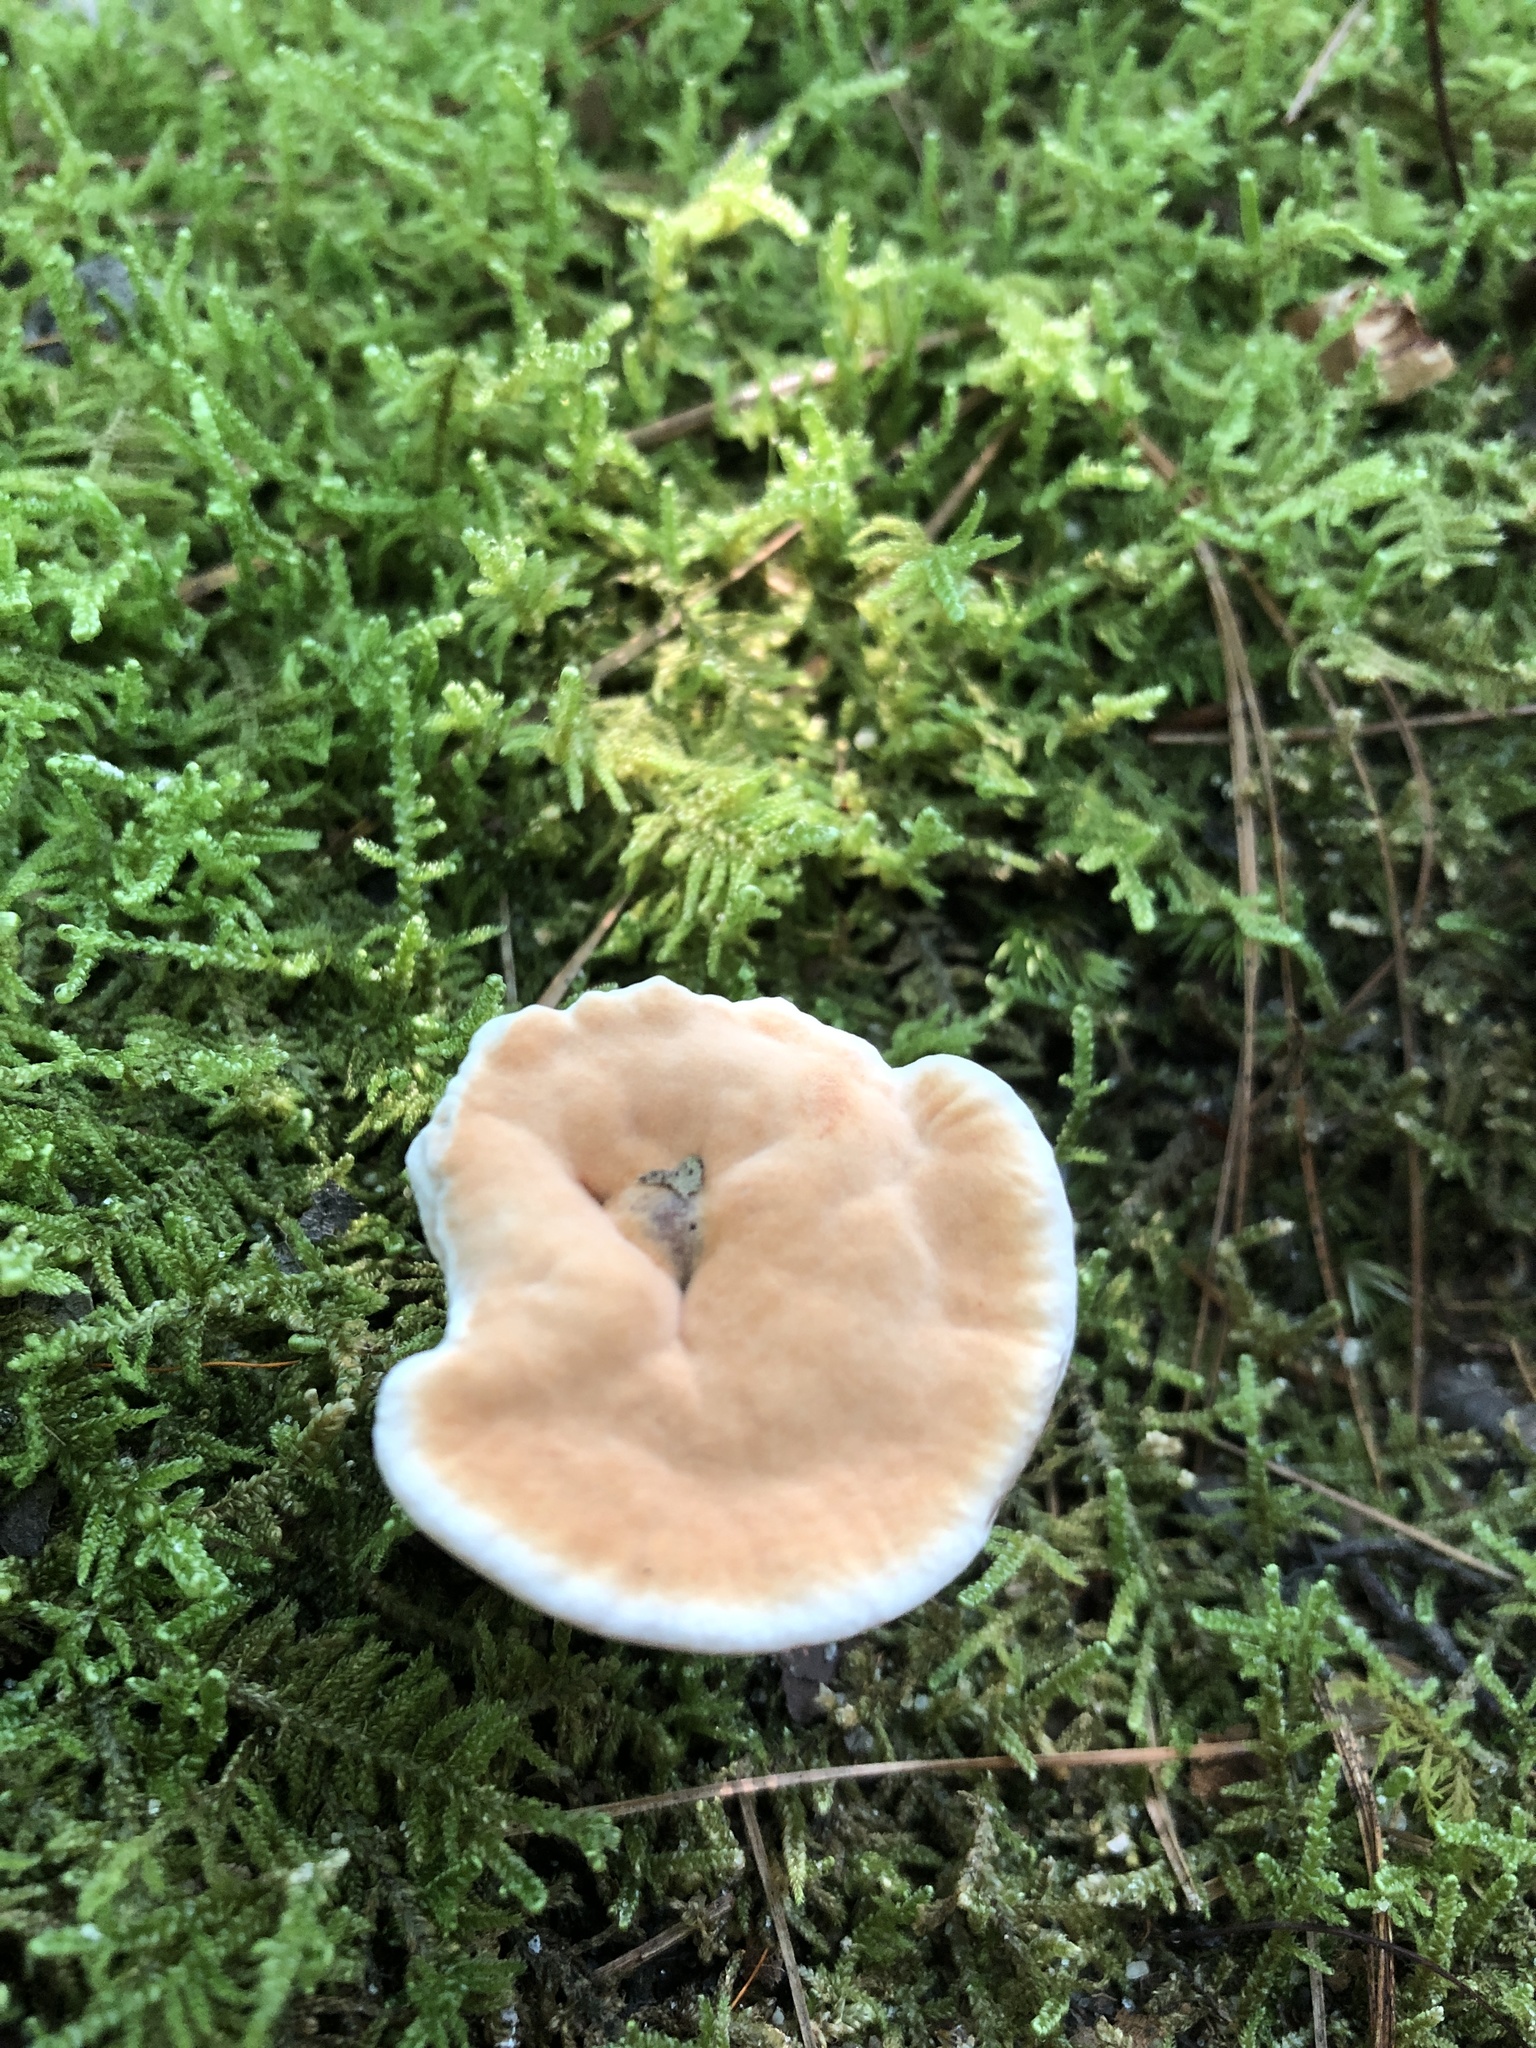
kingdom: Fungi
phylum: Basidiomycota
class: Agaricomycetes
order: Thelephorales
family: Bankeraceae
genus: Hydnellum
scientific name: Hydnellum spongiosipes
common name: Velvet tooth
